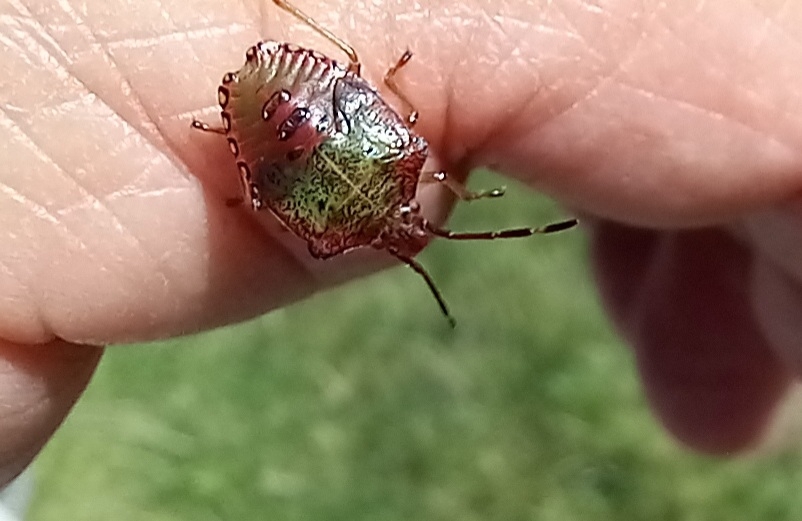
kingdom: Animalia
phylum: Arthropoda
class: Insecta
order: Hemiptera
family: Acanthosomatidae
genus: Acanthosoma
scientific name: Acanthosoma haemorrhoidale
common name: Hawthorn shieldbug
